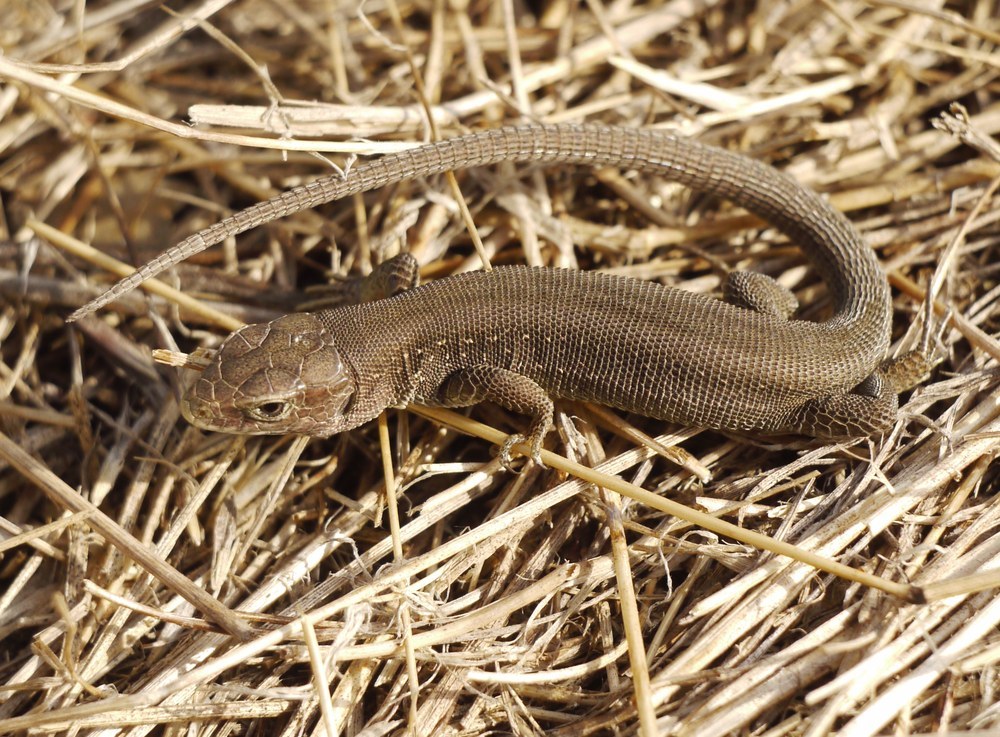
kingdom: Animalia
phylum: Chordata
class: Squamata
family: Lacertidae
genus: Lacerta
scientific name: Lacerta agilis
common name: Sand lizard
